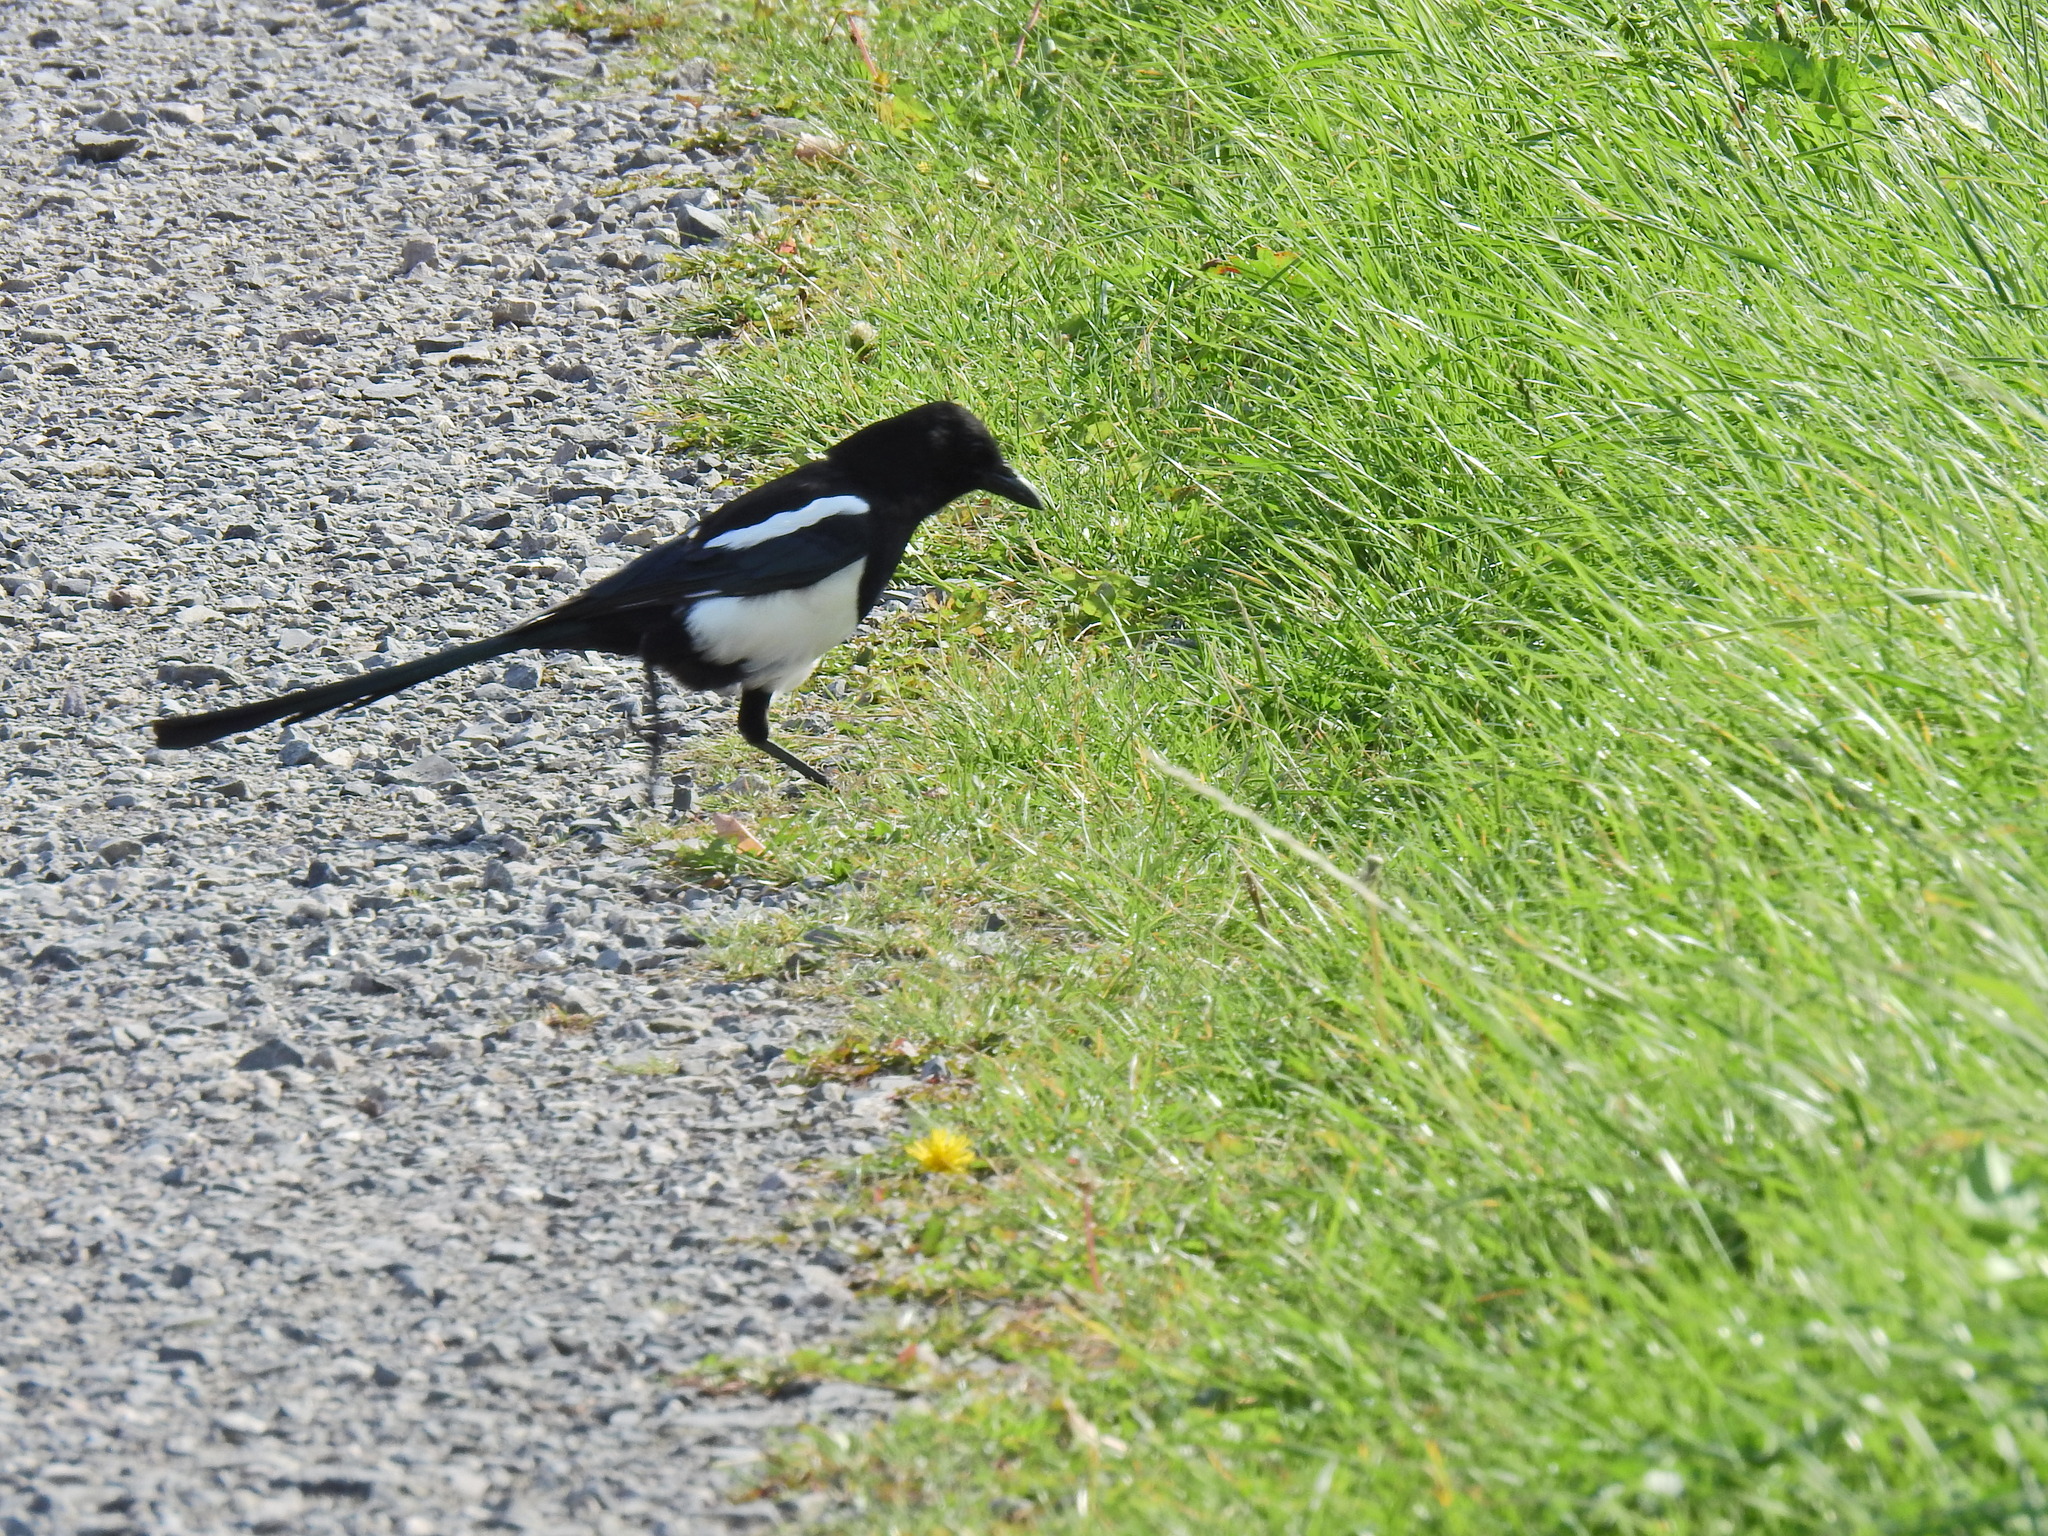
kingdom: Animalia
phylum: Chordata
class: Aves
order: Passeriformes
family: Corvidae
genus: Pica
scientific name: Pica pica
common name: Eurasian magpie
